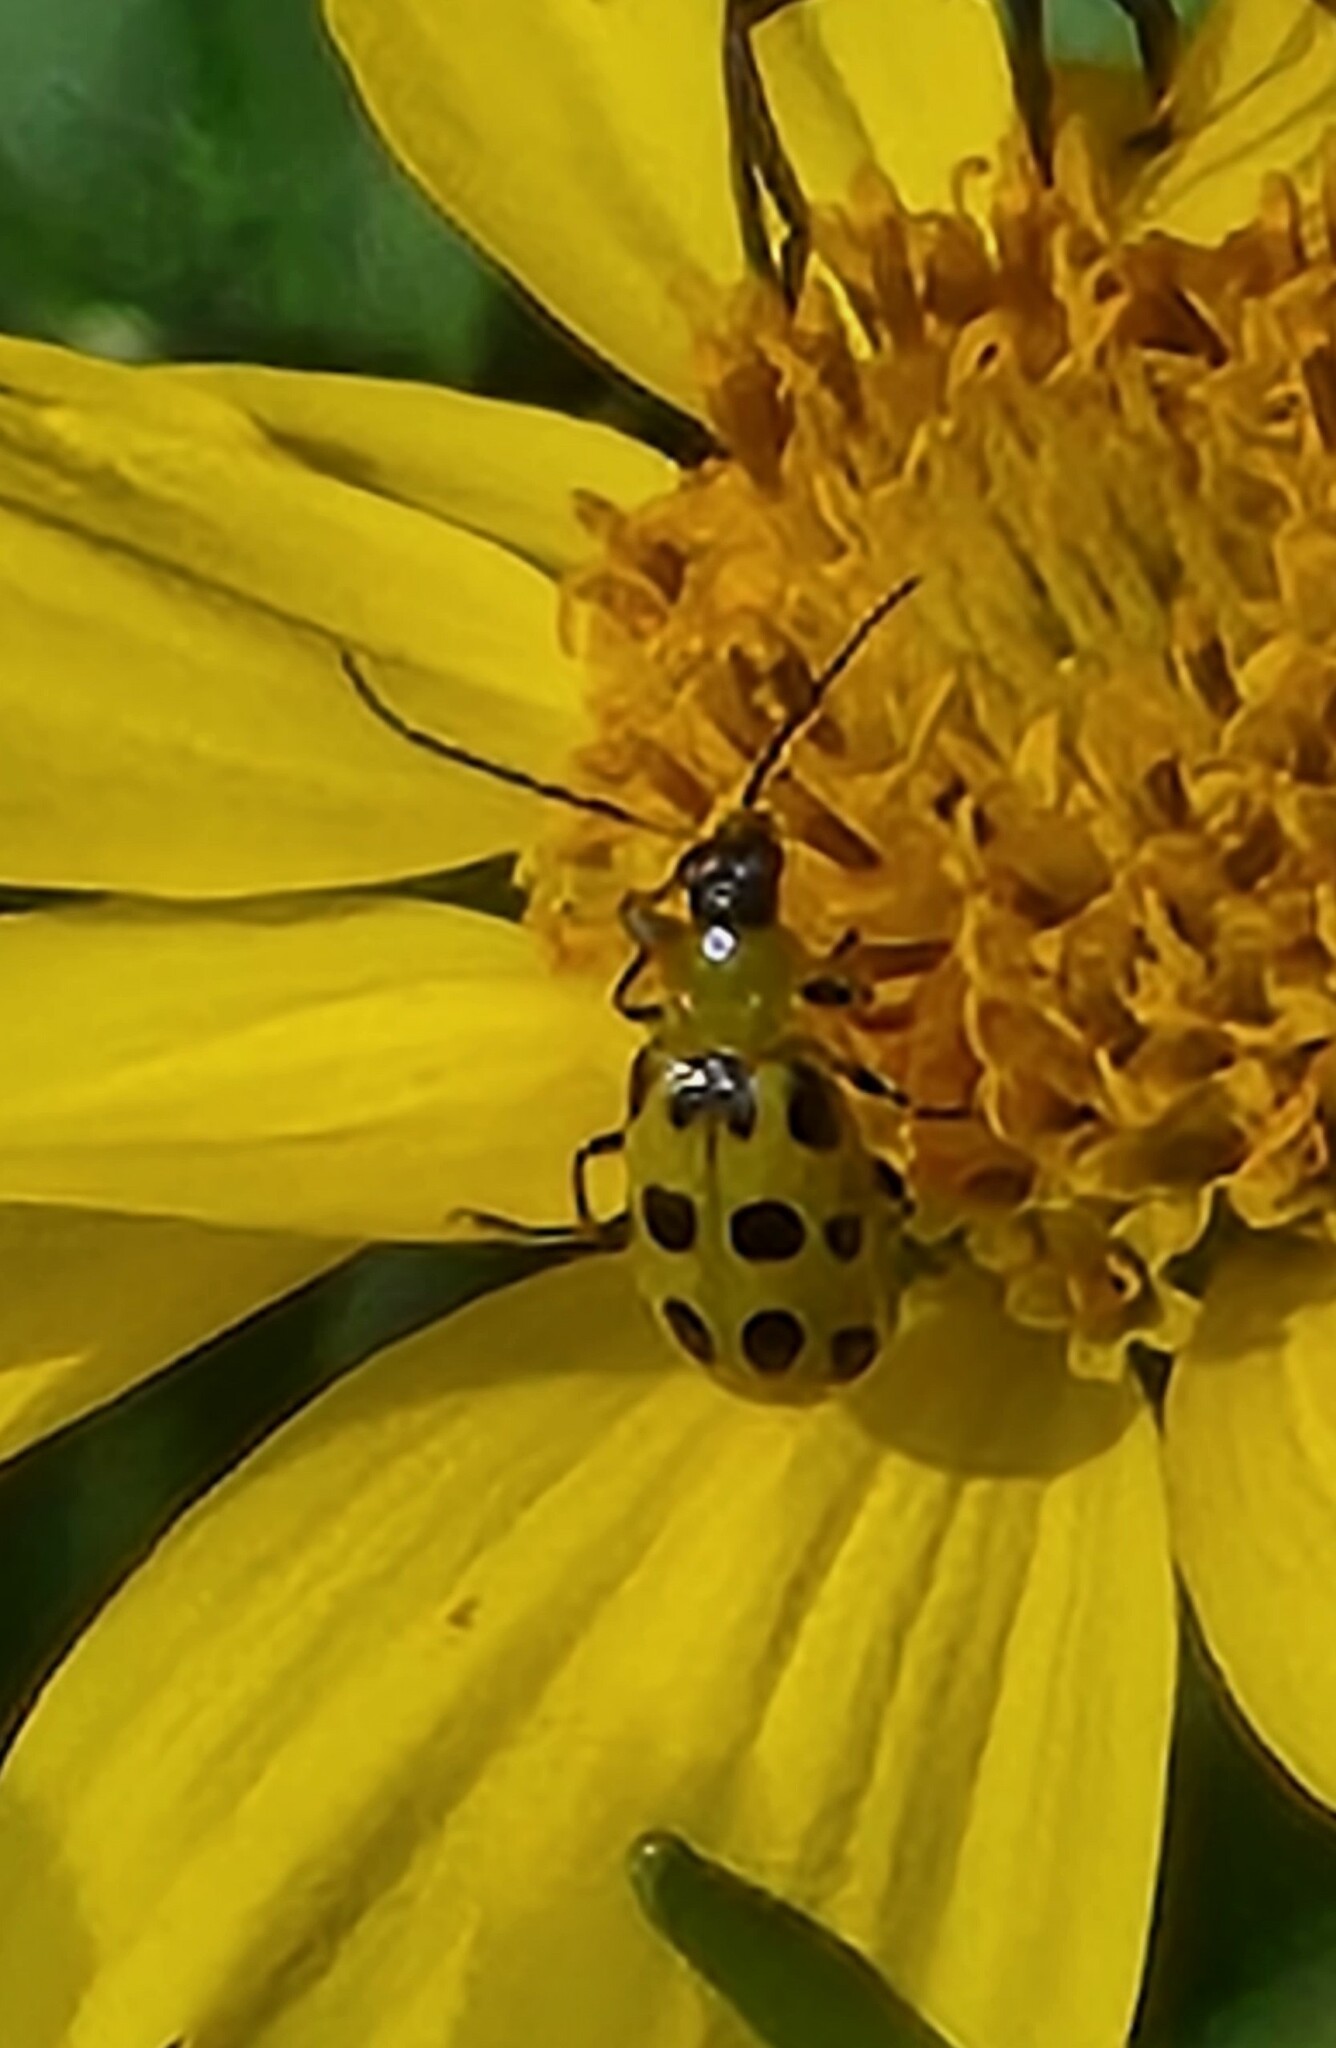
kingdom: Animalia
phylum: Arthropoda
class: Insecta
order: Coleoptera
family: Chrysomelidae
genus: Diabrotica
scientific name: Diabrotica undecimpunctata
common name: Spotted cucumber beetle
